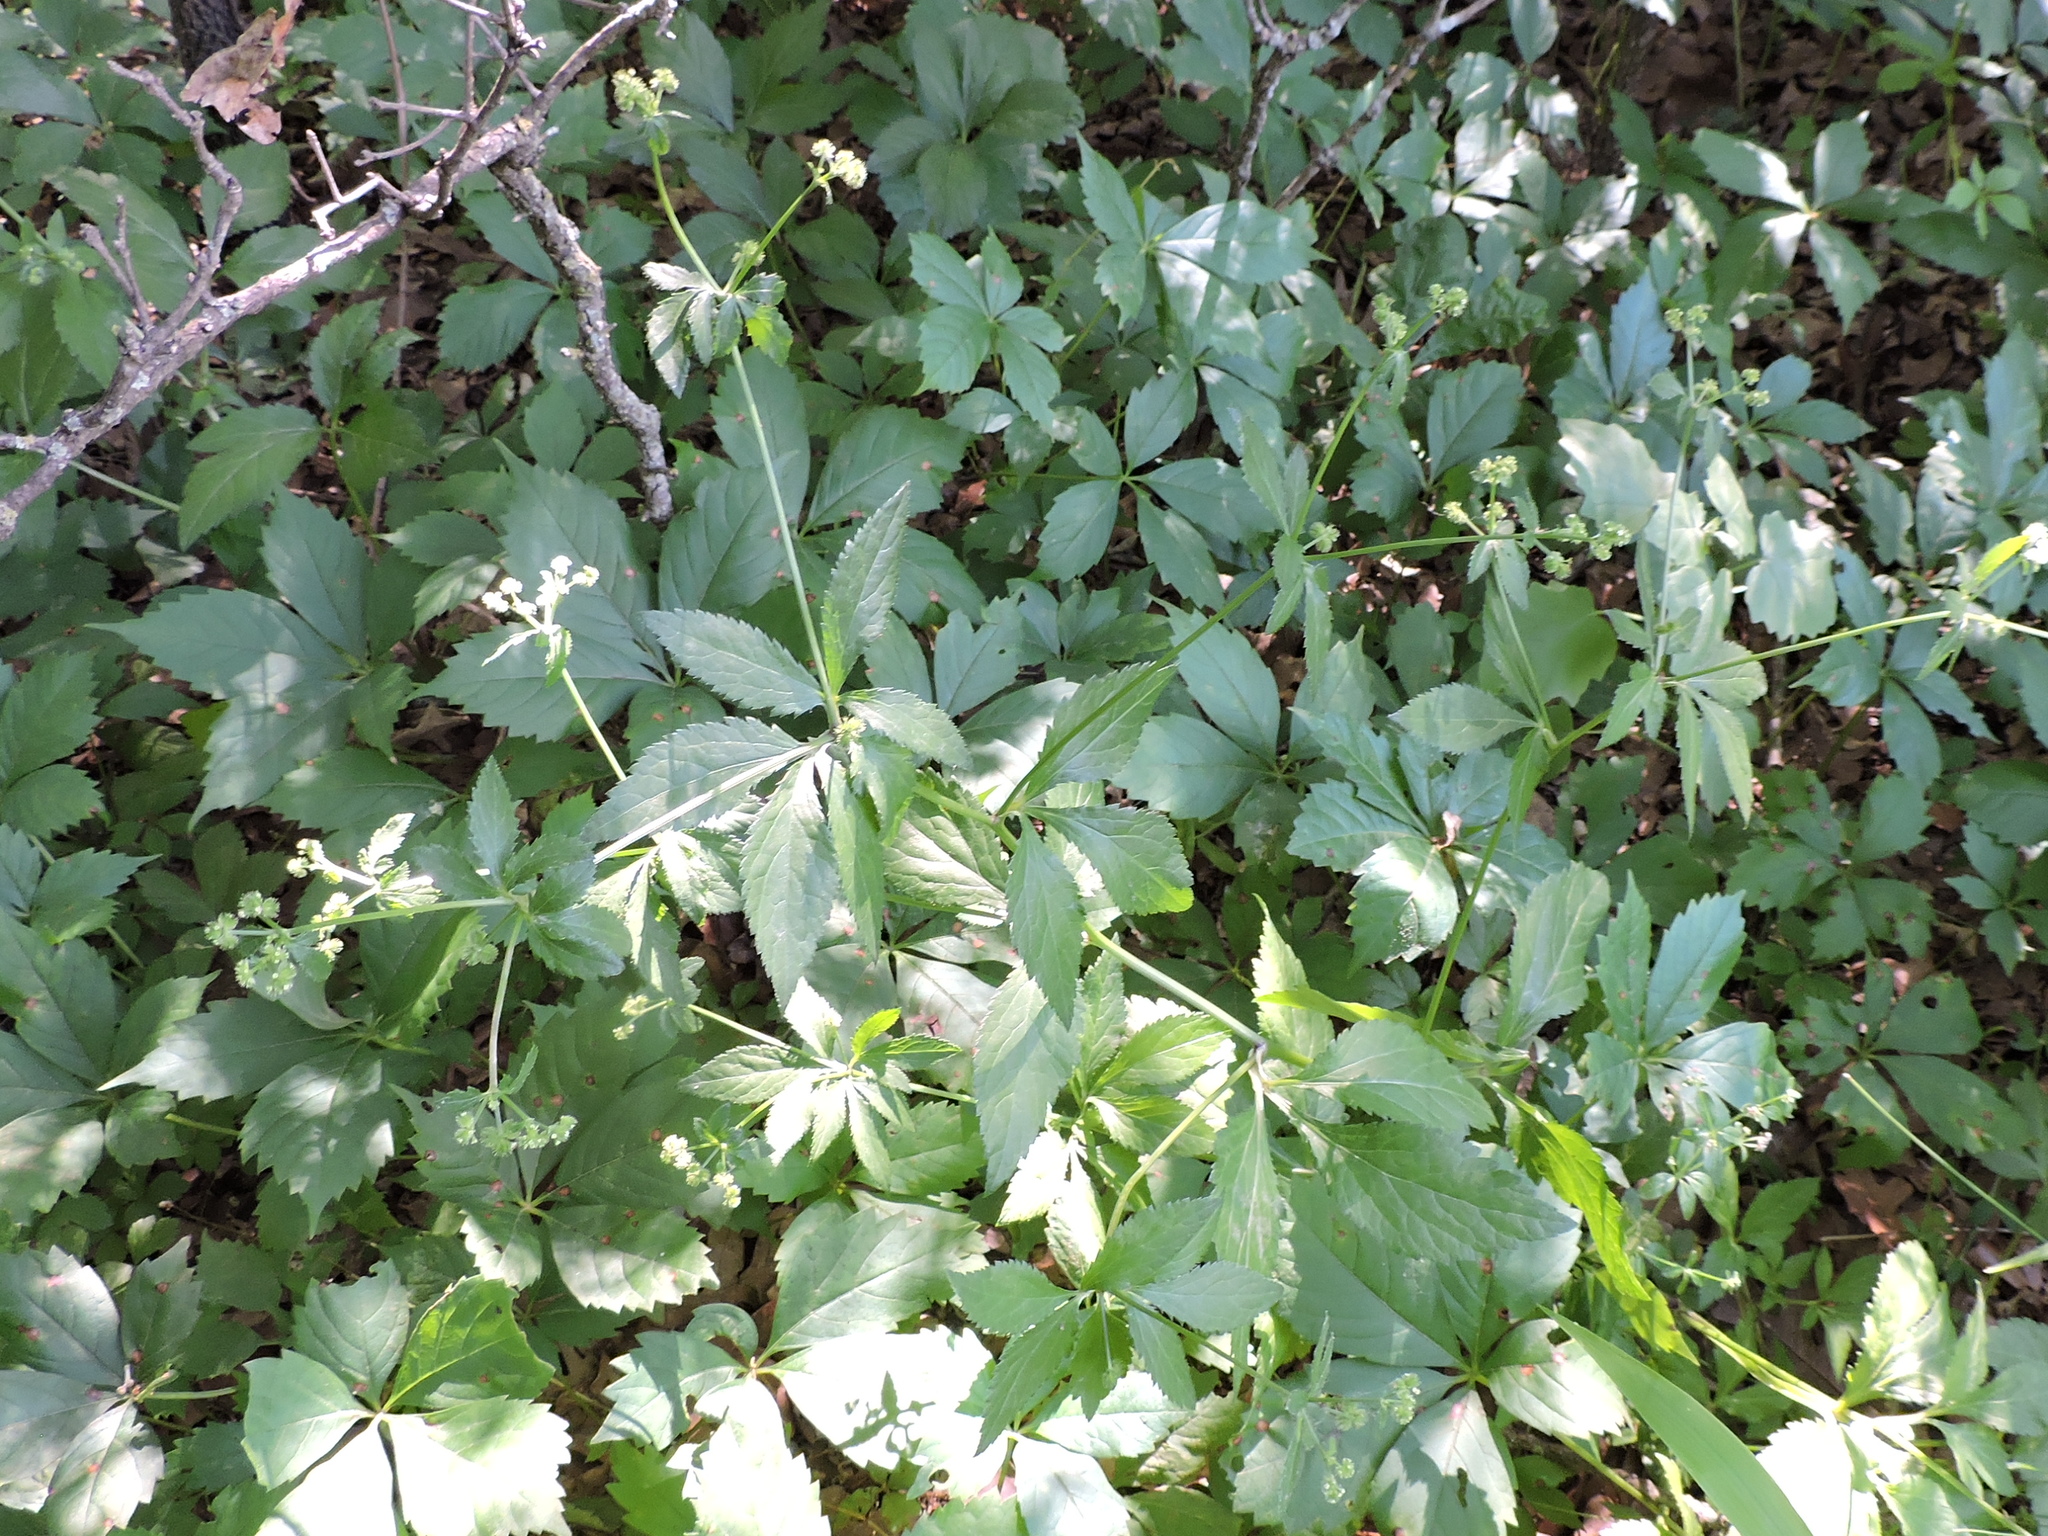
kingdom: Plantae
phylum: Tracheophyta
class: Magnoliopsida
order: Apiales
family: Apiaceae
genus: Sanicula
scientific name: Sanicula canadensis
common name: Canada sanicle
